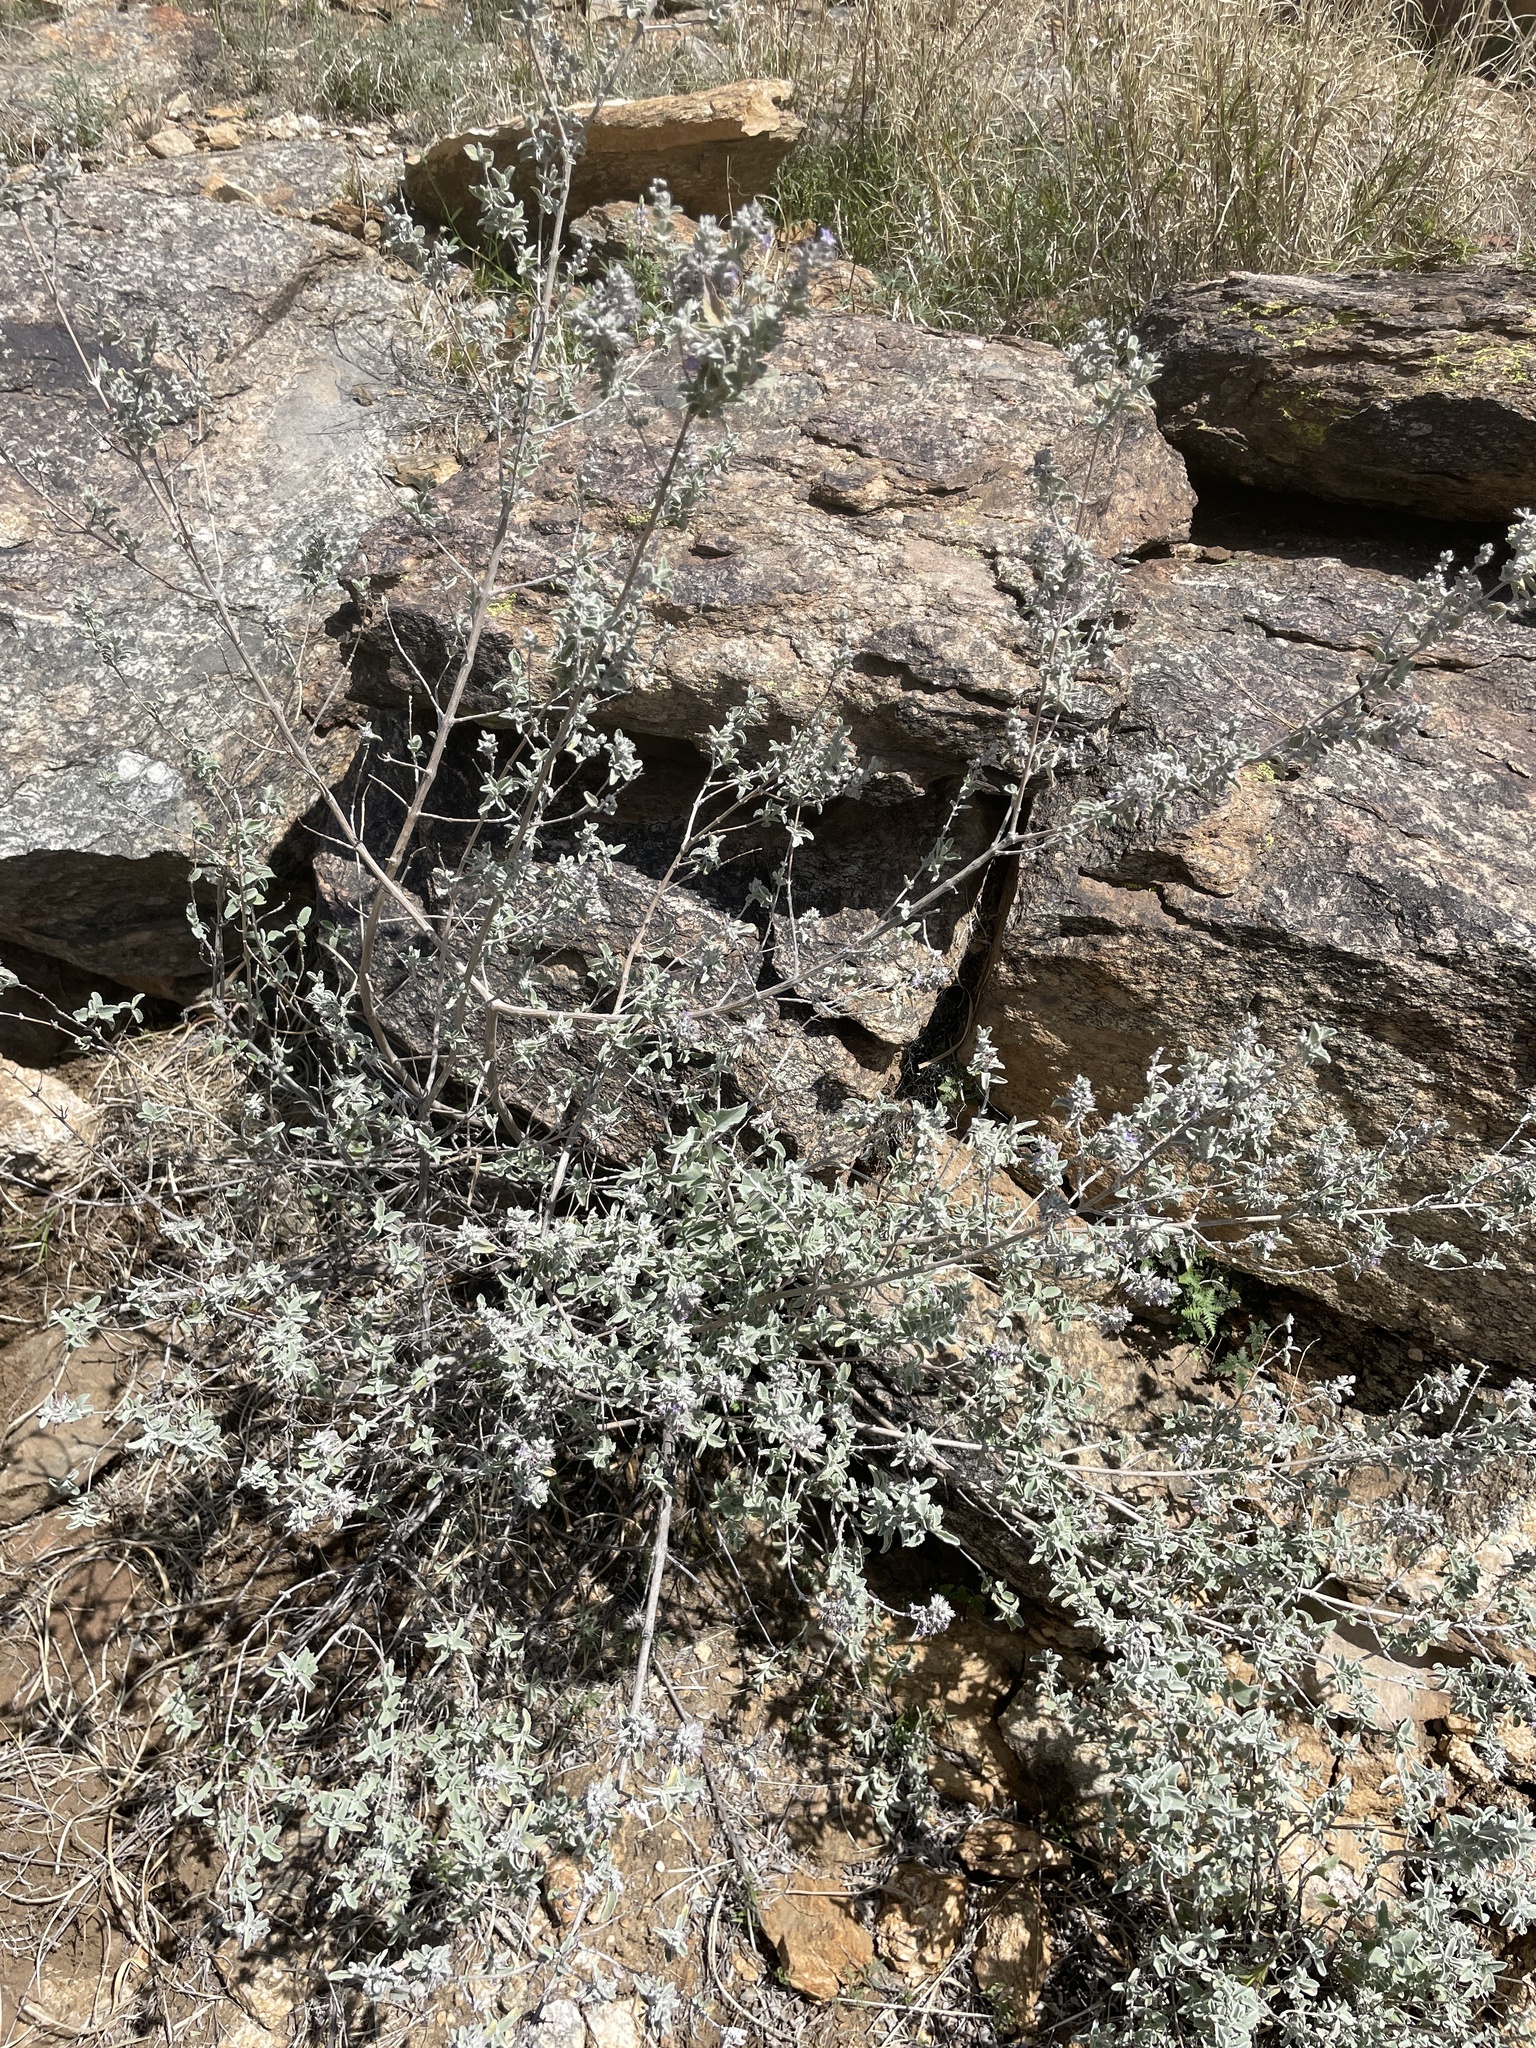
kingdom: Plantae
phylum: Tracheophyta
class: Magnoliopsida
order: Lamiales
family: Lamiaceae
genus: Condea
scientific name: Condea emoryi
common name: Chia
